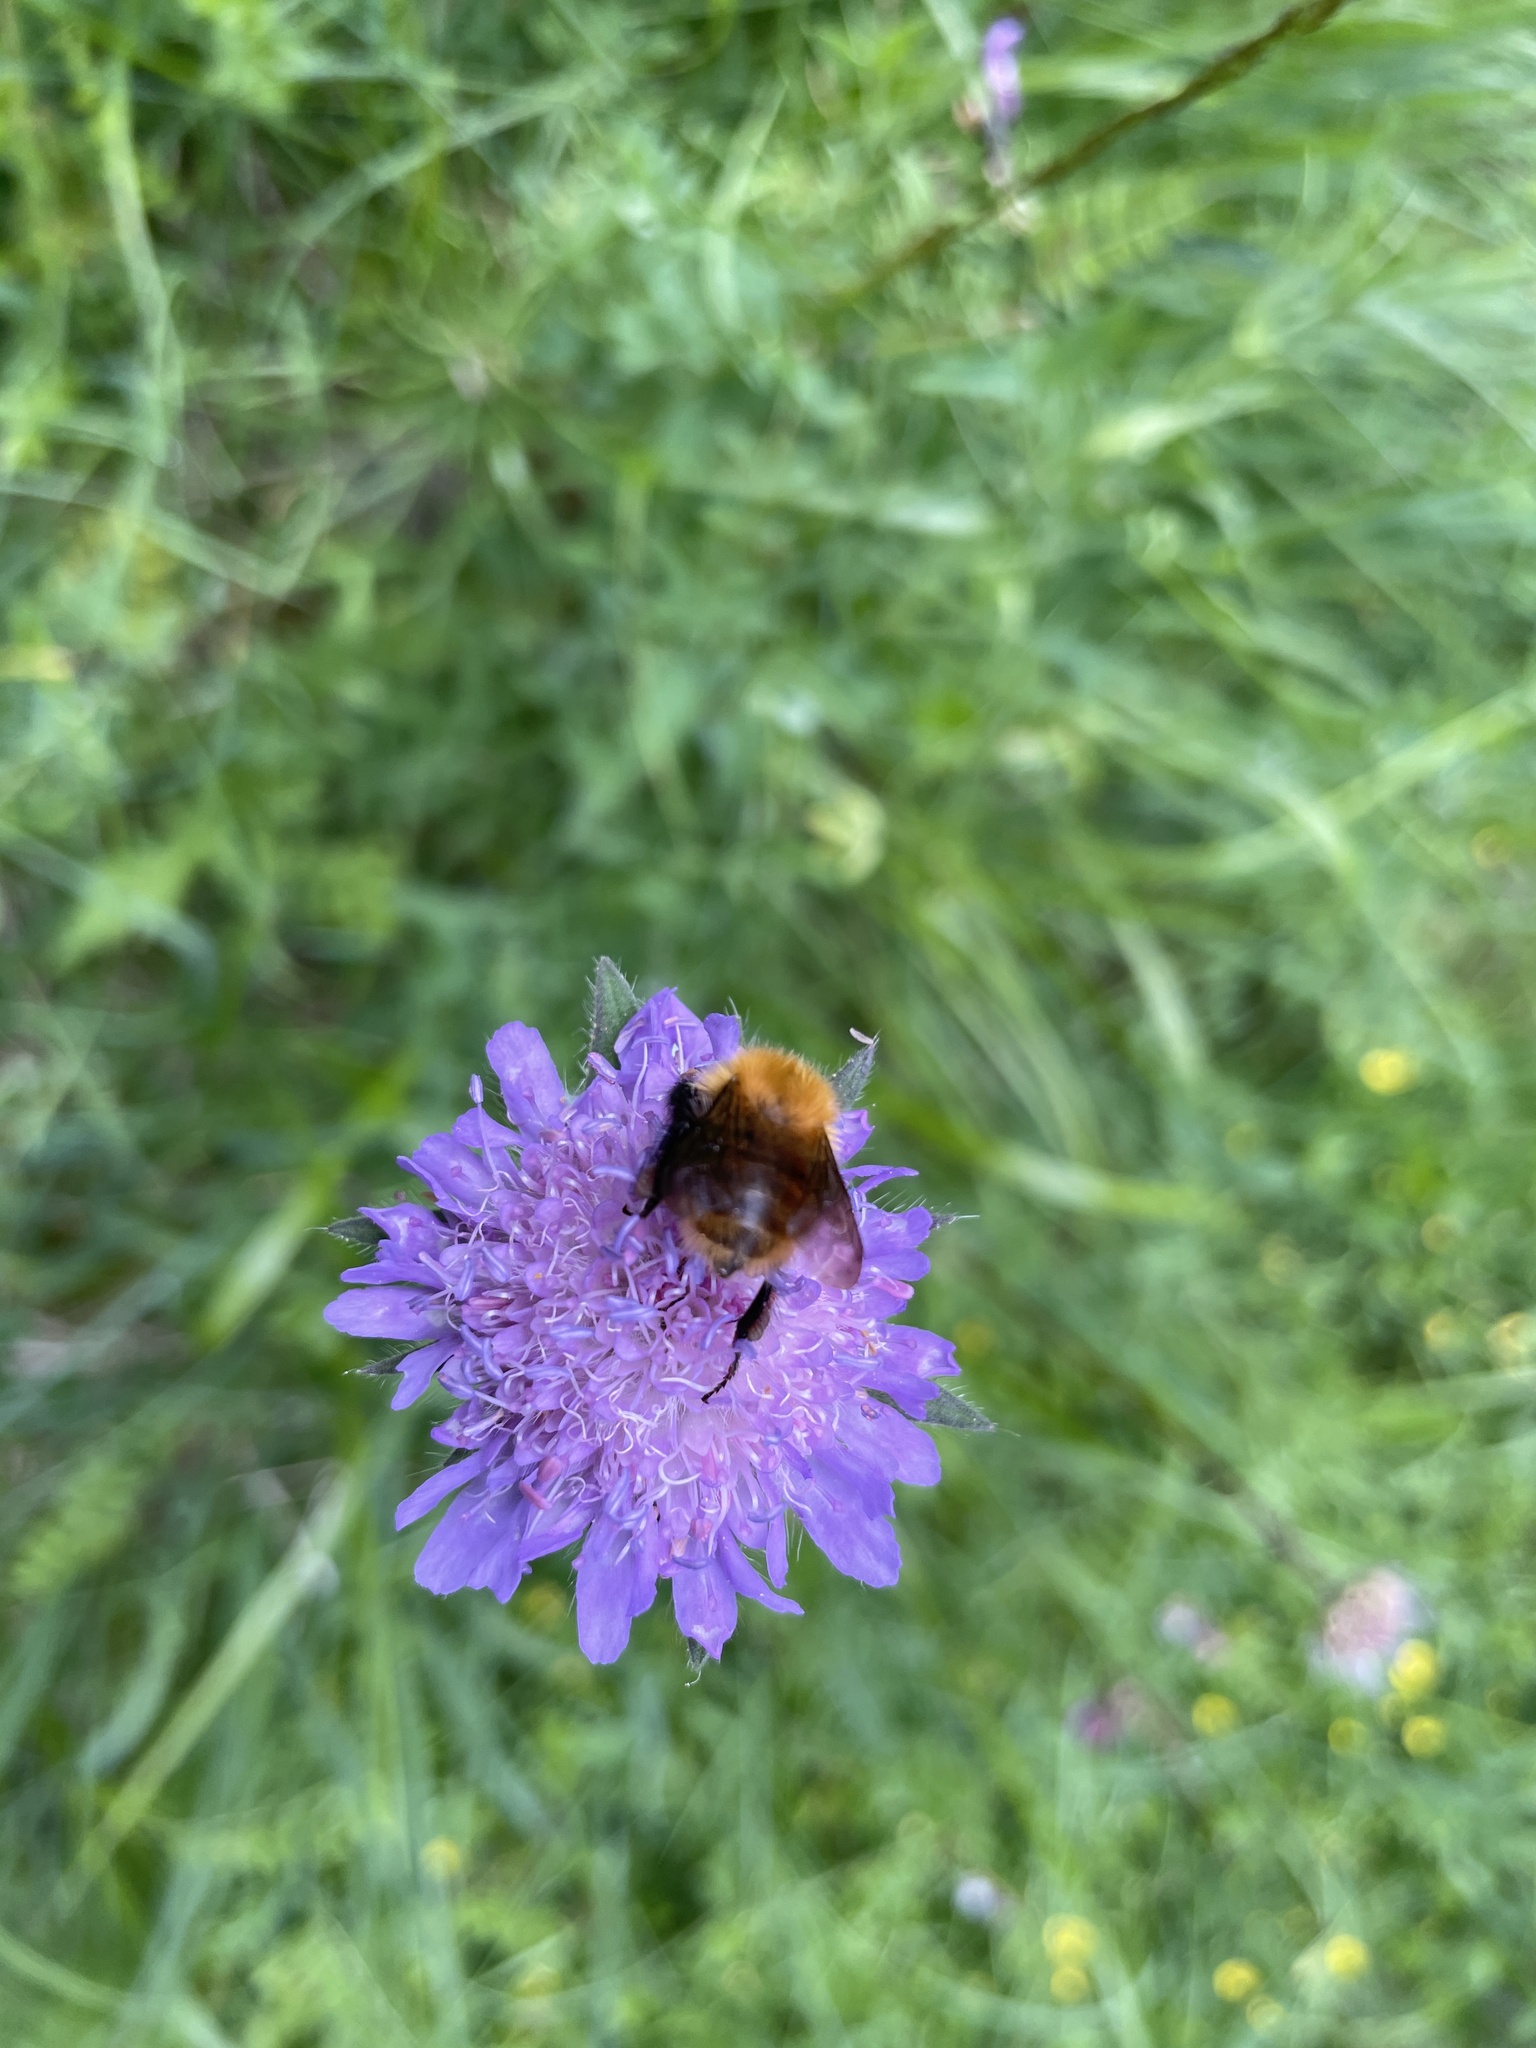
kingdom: Animalia
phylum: Arthropoda
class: Insecta
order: Hymenoptera
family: Apidae
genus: Bombus
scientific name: Bombus pascuorum
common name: Common carder bee
